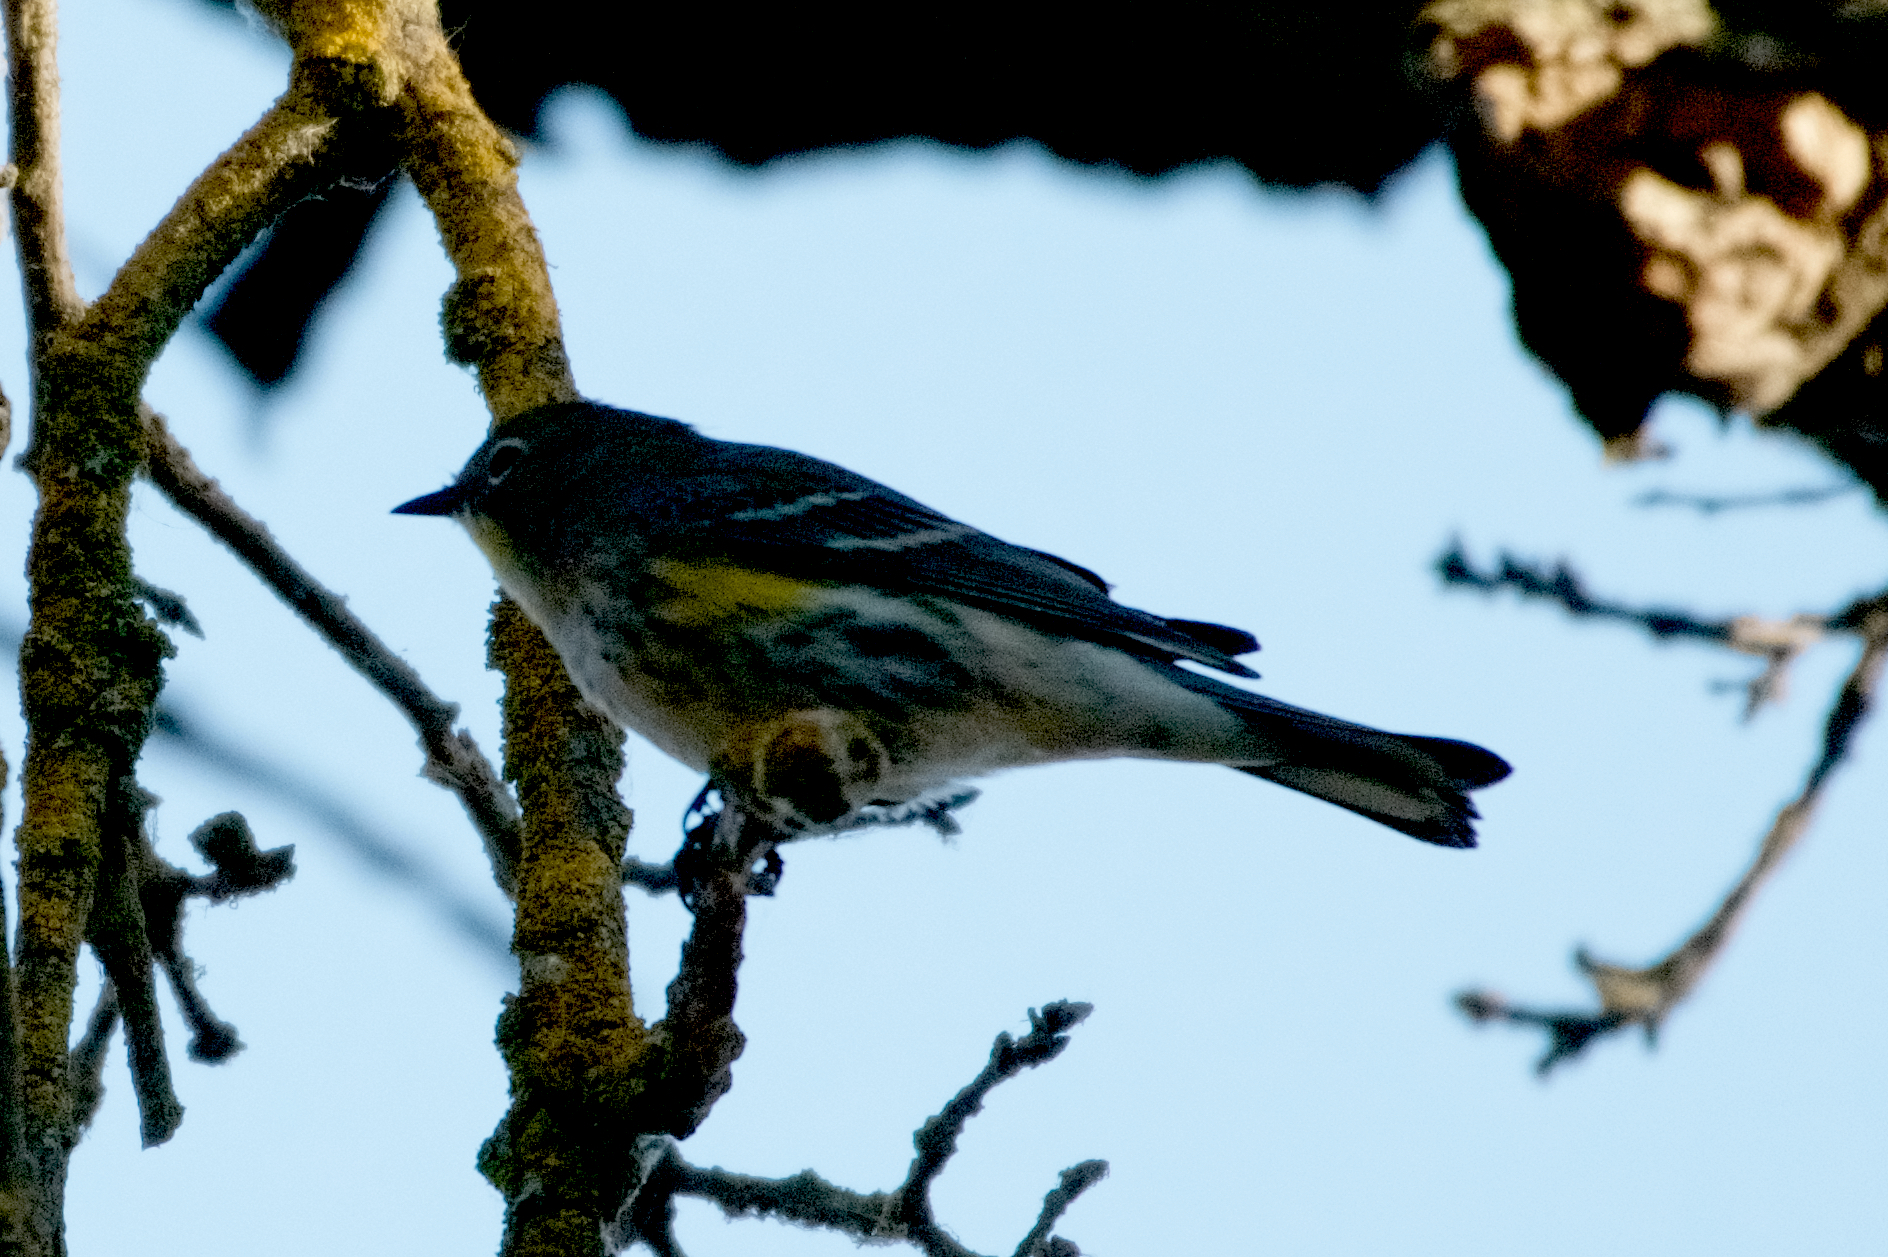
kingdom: Animalia
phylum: Chordata
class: Aves
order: Passeriformes
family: Parulidae
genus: Setophaga
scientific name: Setophaga coronata
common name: Myrtle warbler
